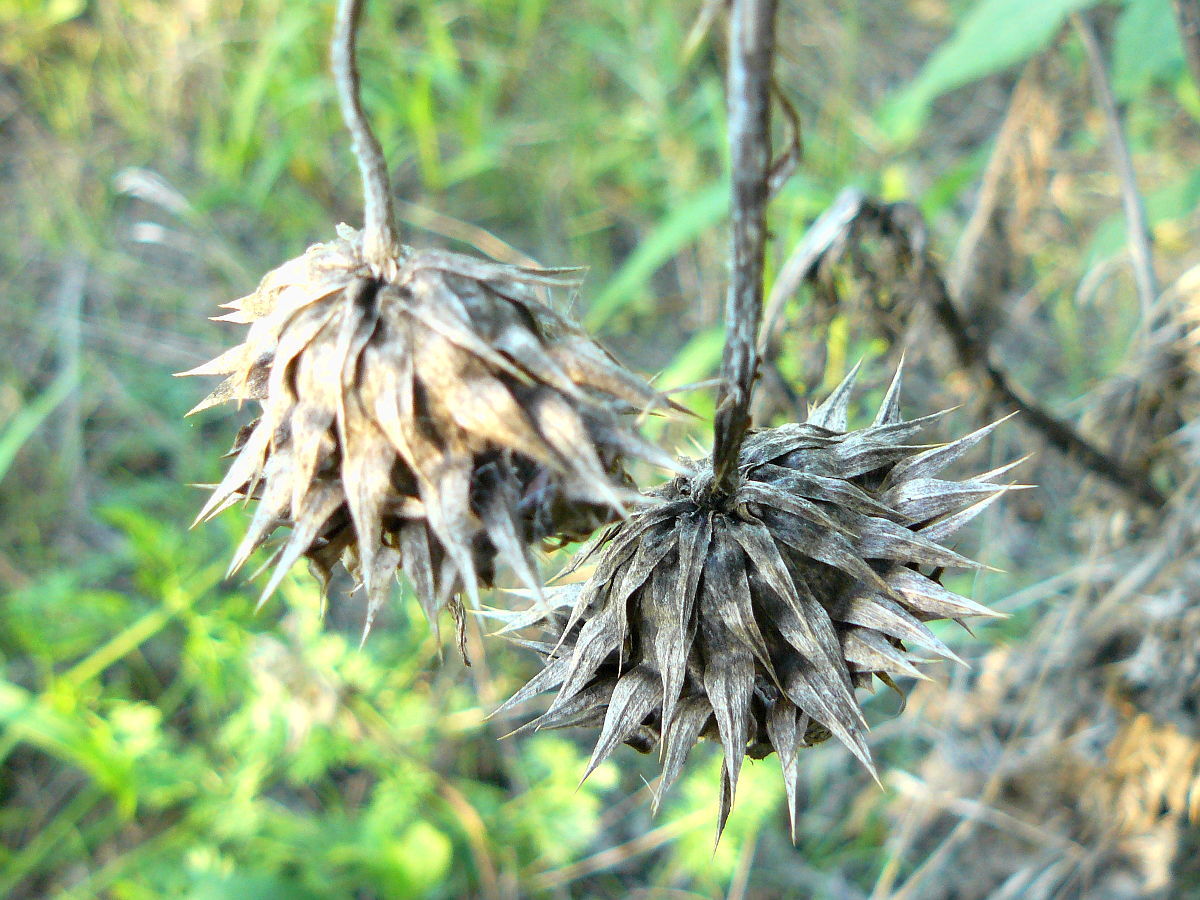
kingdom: Plantae
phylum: Tracheophyta
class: Magnoliopsida
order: Asterales
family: Asteraceae
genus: Carduus
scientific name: Carduus nutans
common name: Musk thistle
